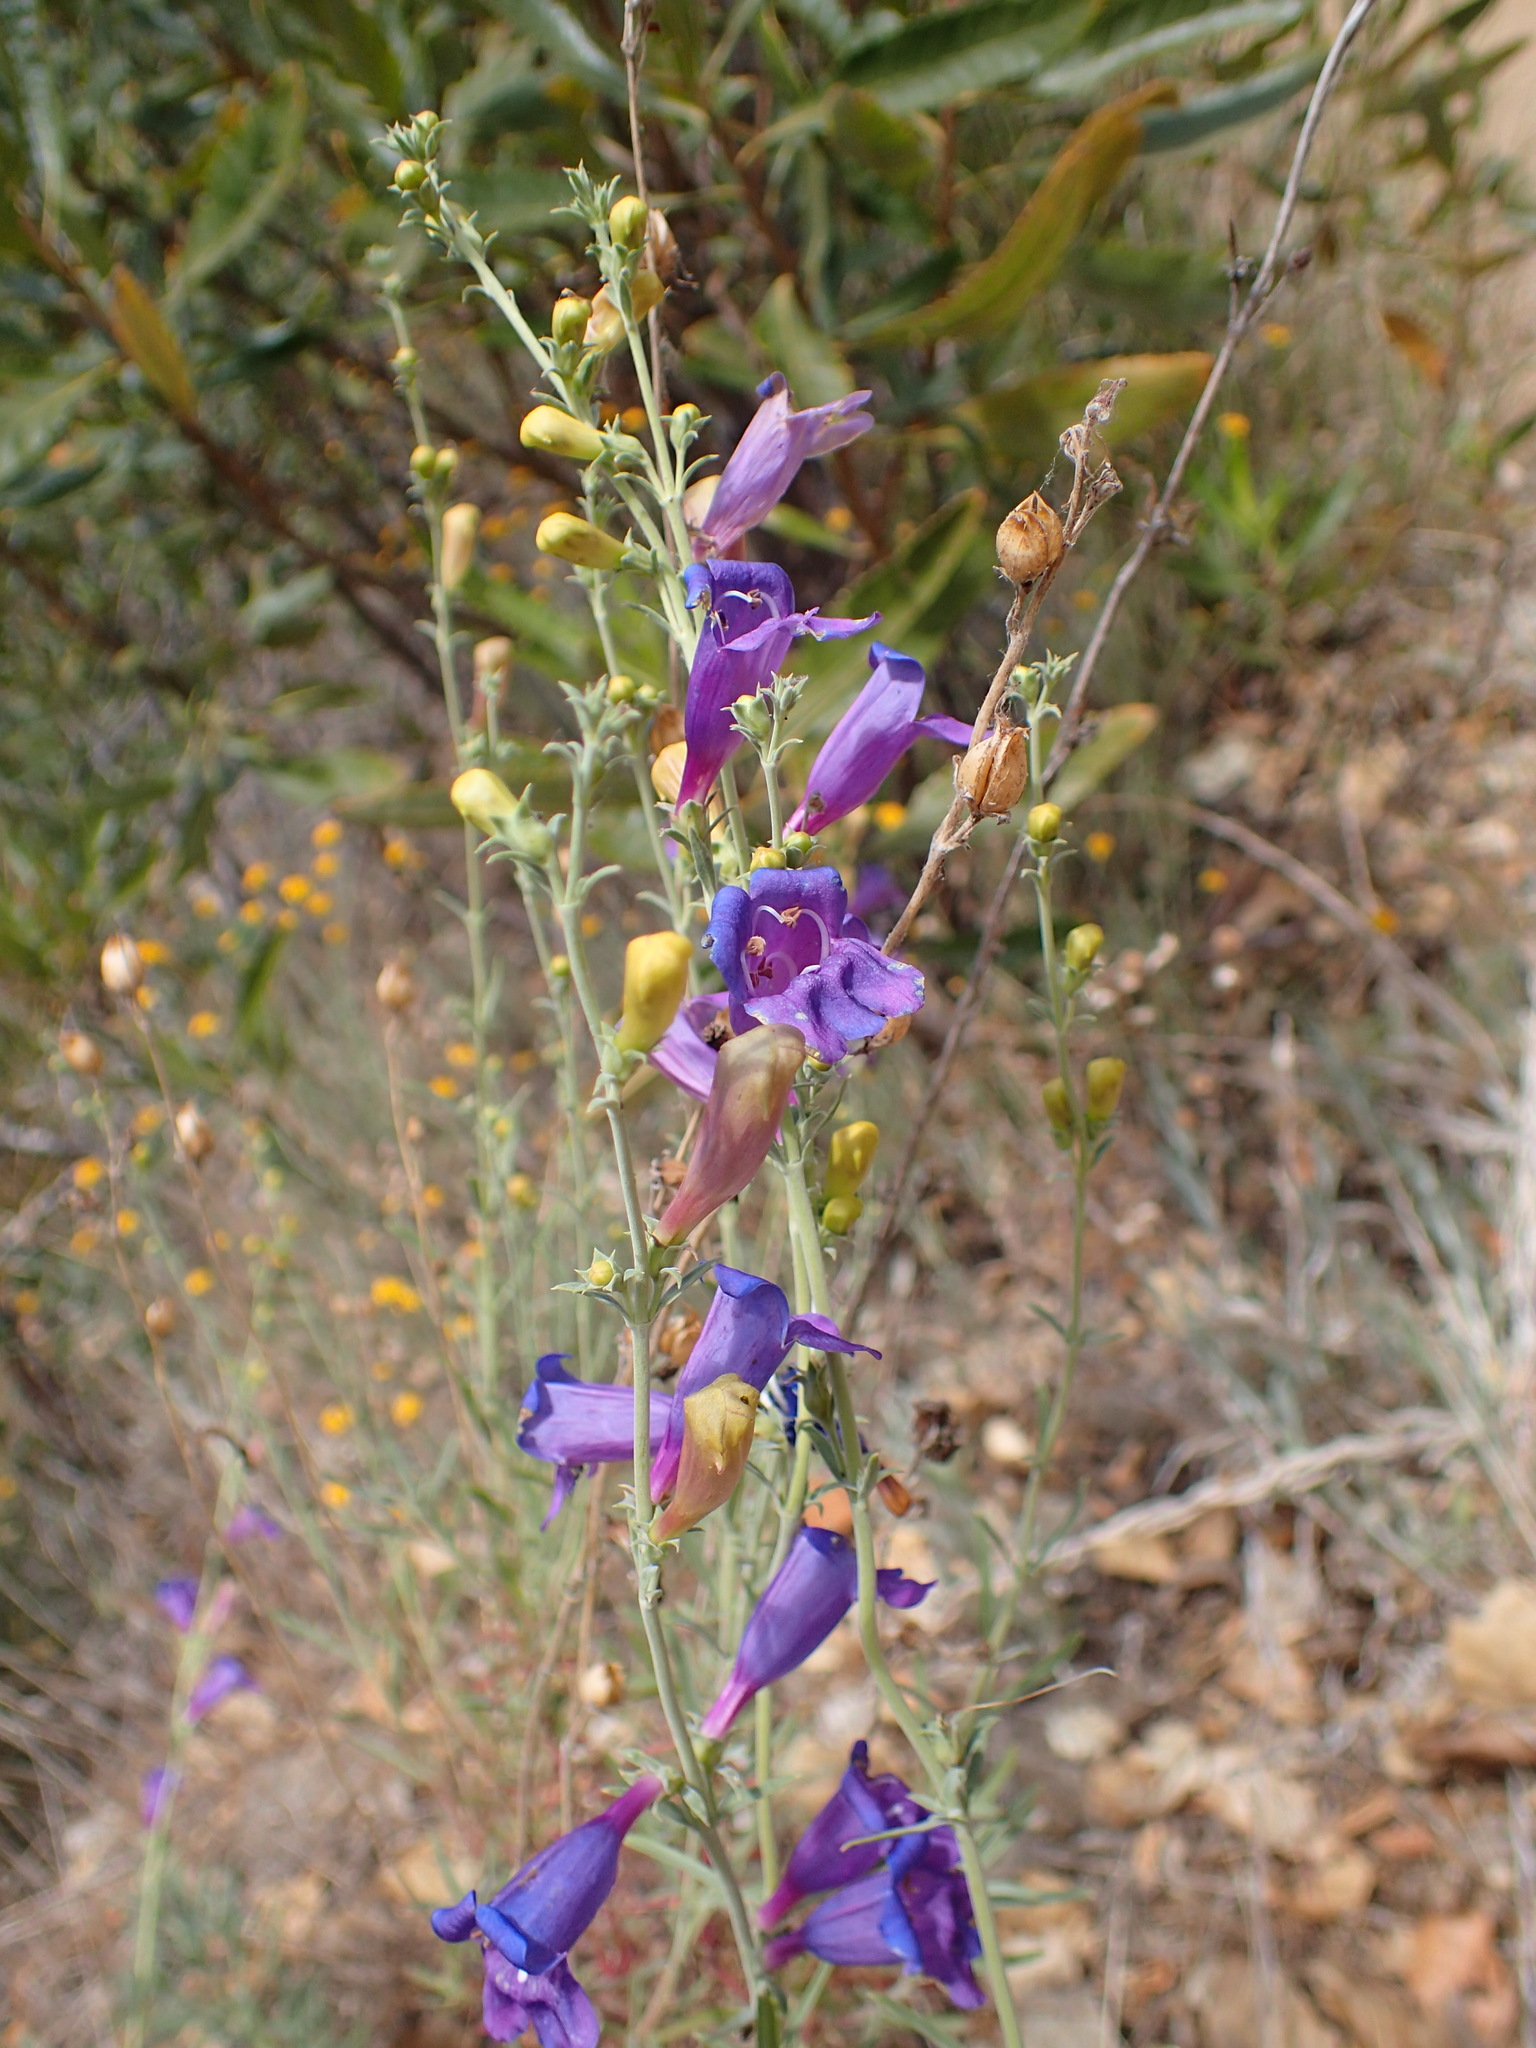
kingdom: Plantae
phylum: Tracheophyta
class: Magnoliopsida
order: Lamiales
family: Plantaginaceae
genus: Penstemon
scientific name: Penstemon heterophyllus
